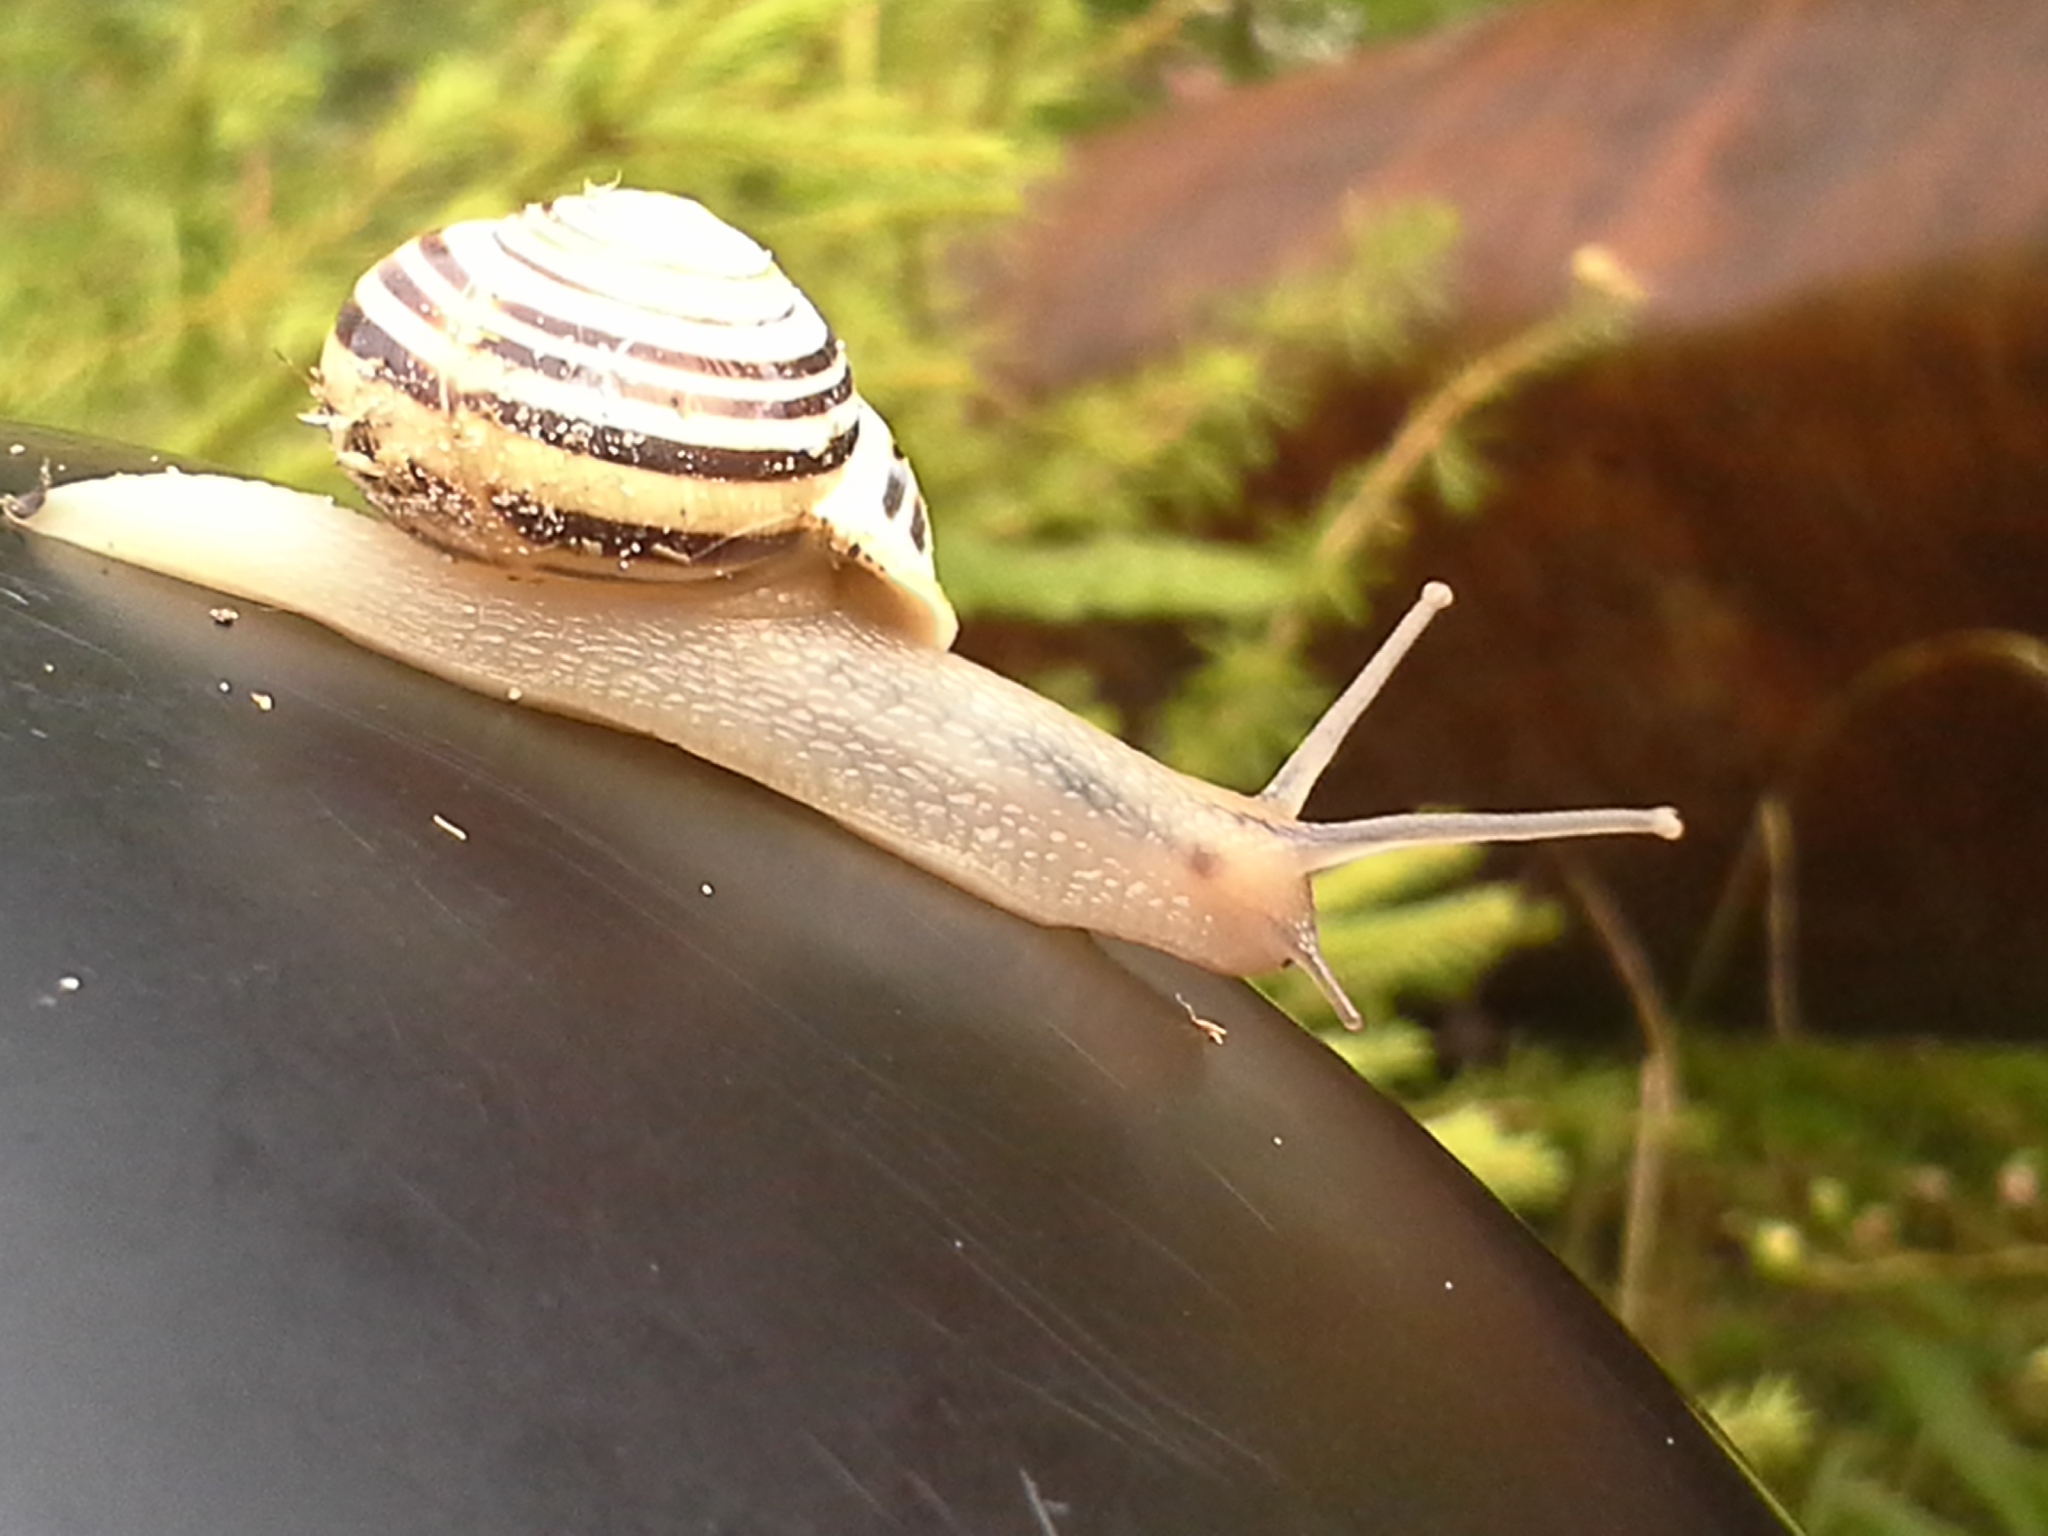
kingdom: Animalia
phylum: Mollusca
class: Gastropoda
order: Stylommatophora
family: Helicidae
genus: Cepaea
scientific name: Cepaea hortensis
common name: White-lip gardensnail
